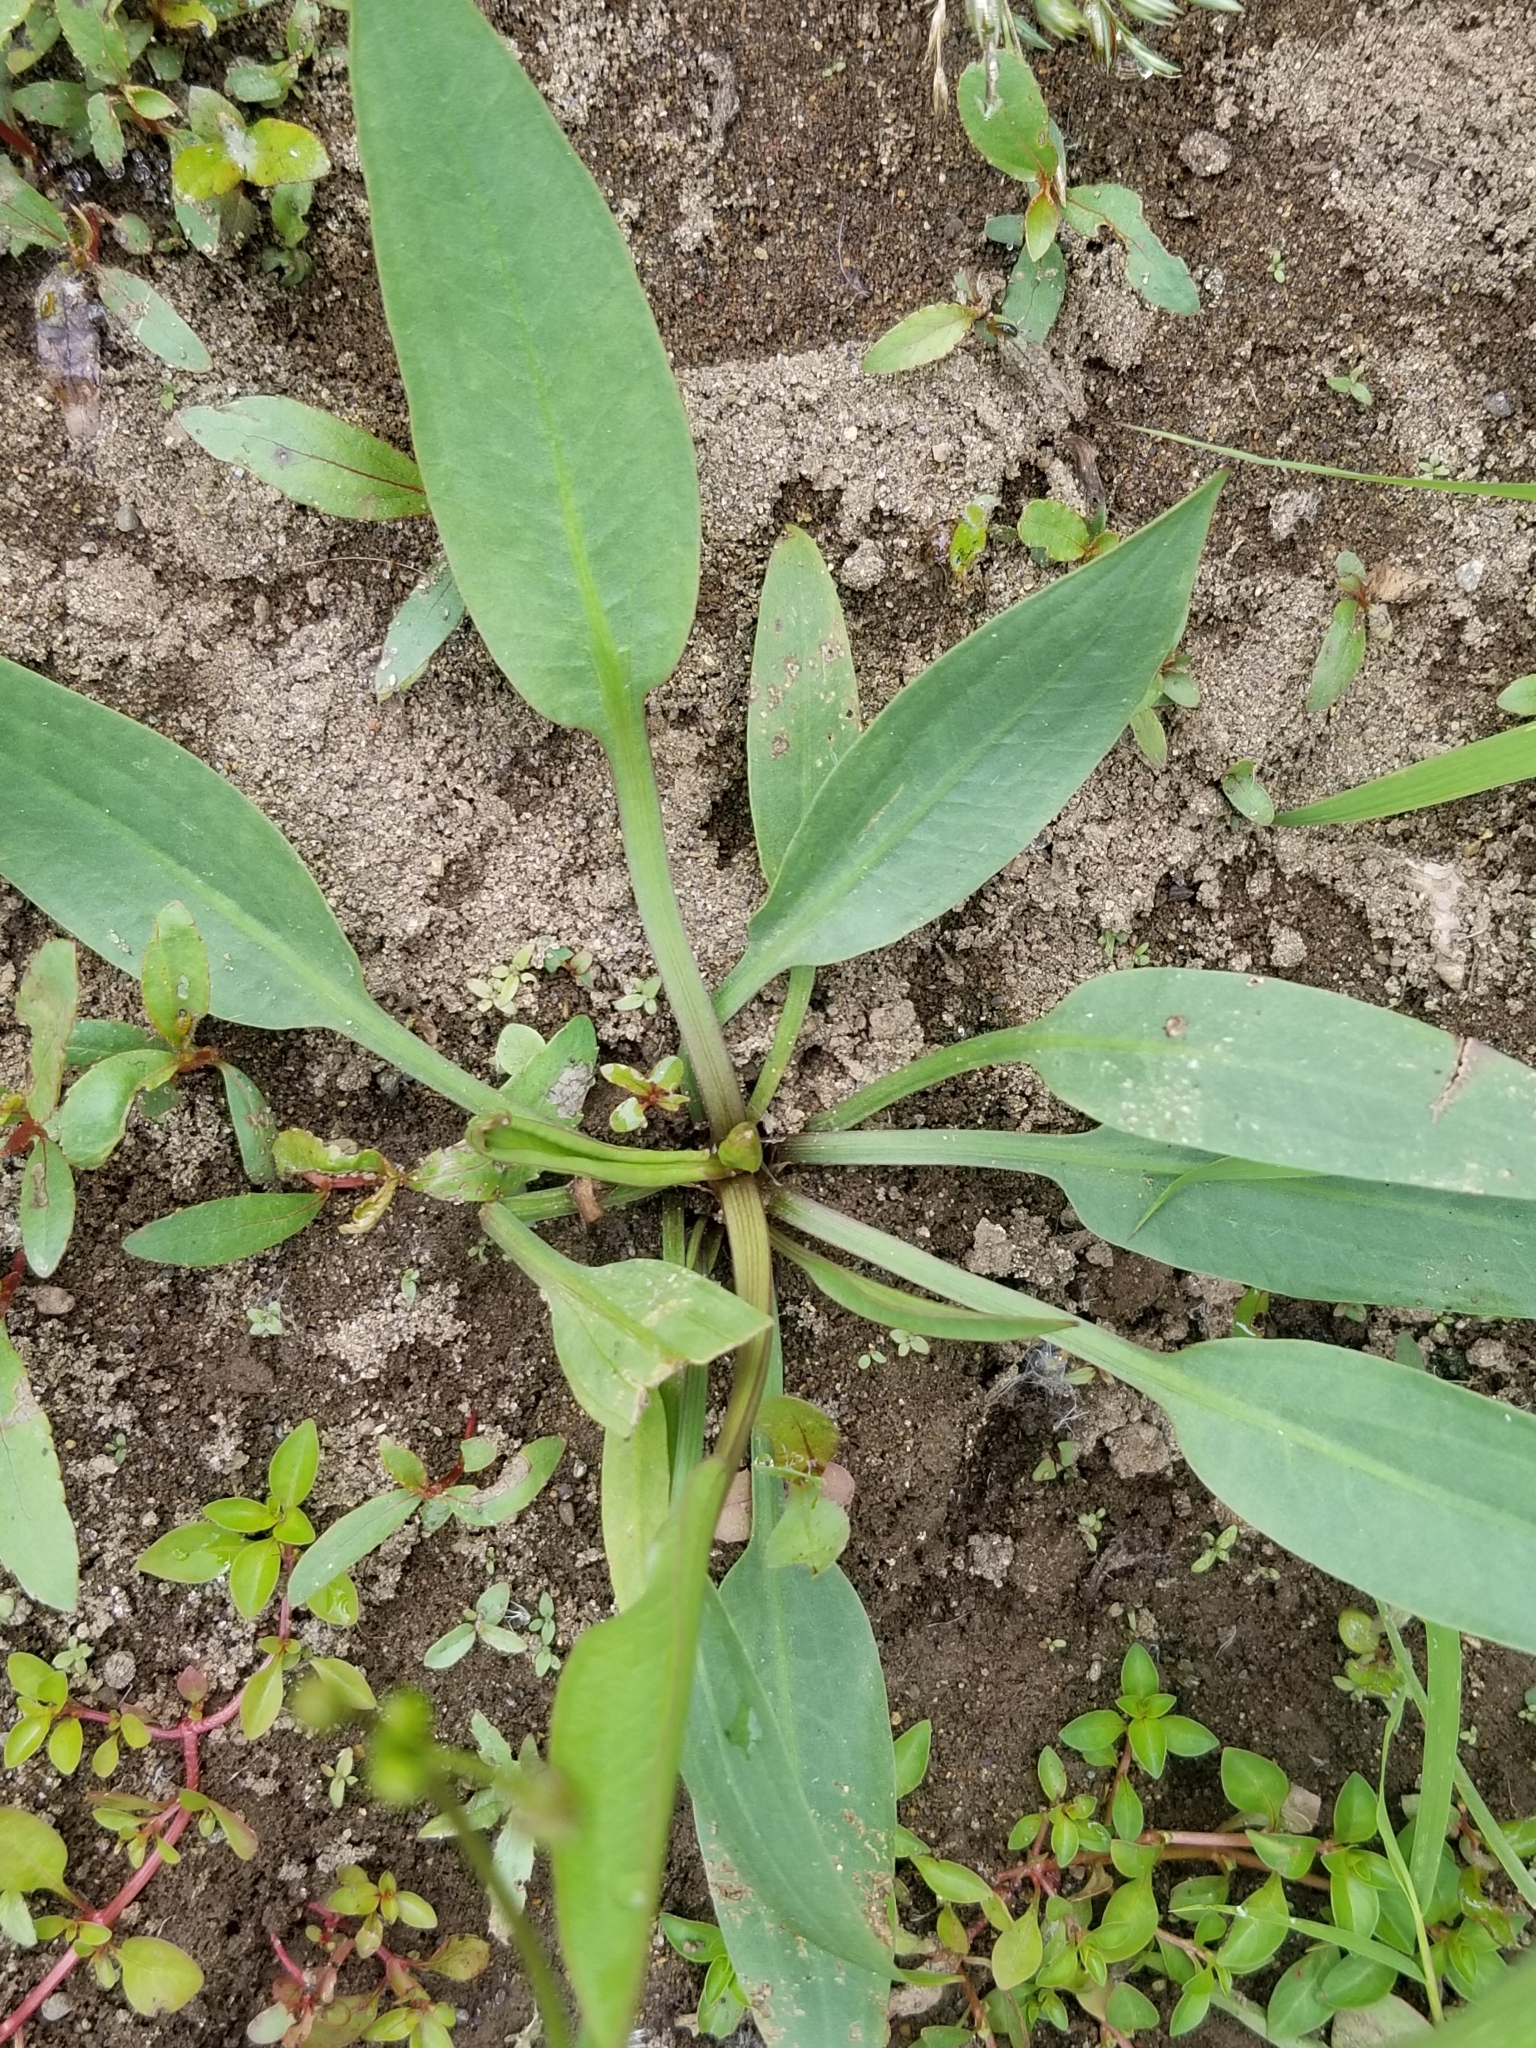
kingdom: Plantae
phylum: Tracheophyta
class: Liliopsida
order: Alismatales
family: Alismataceae
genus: Alisma
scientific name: Alisma lanceolatum
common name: Narrow-leaved water-plantain
